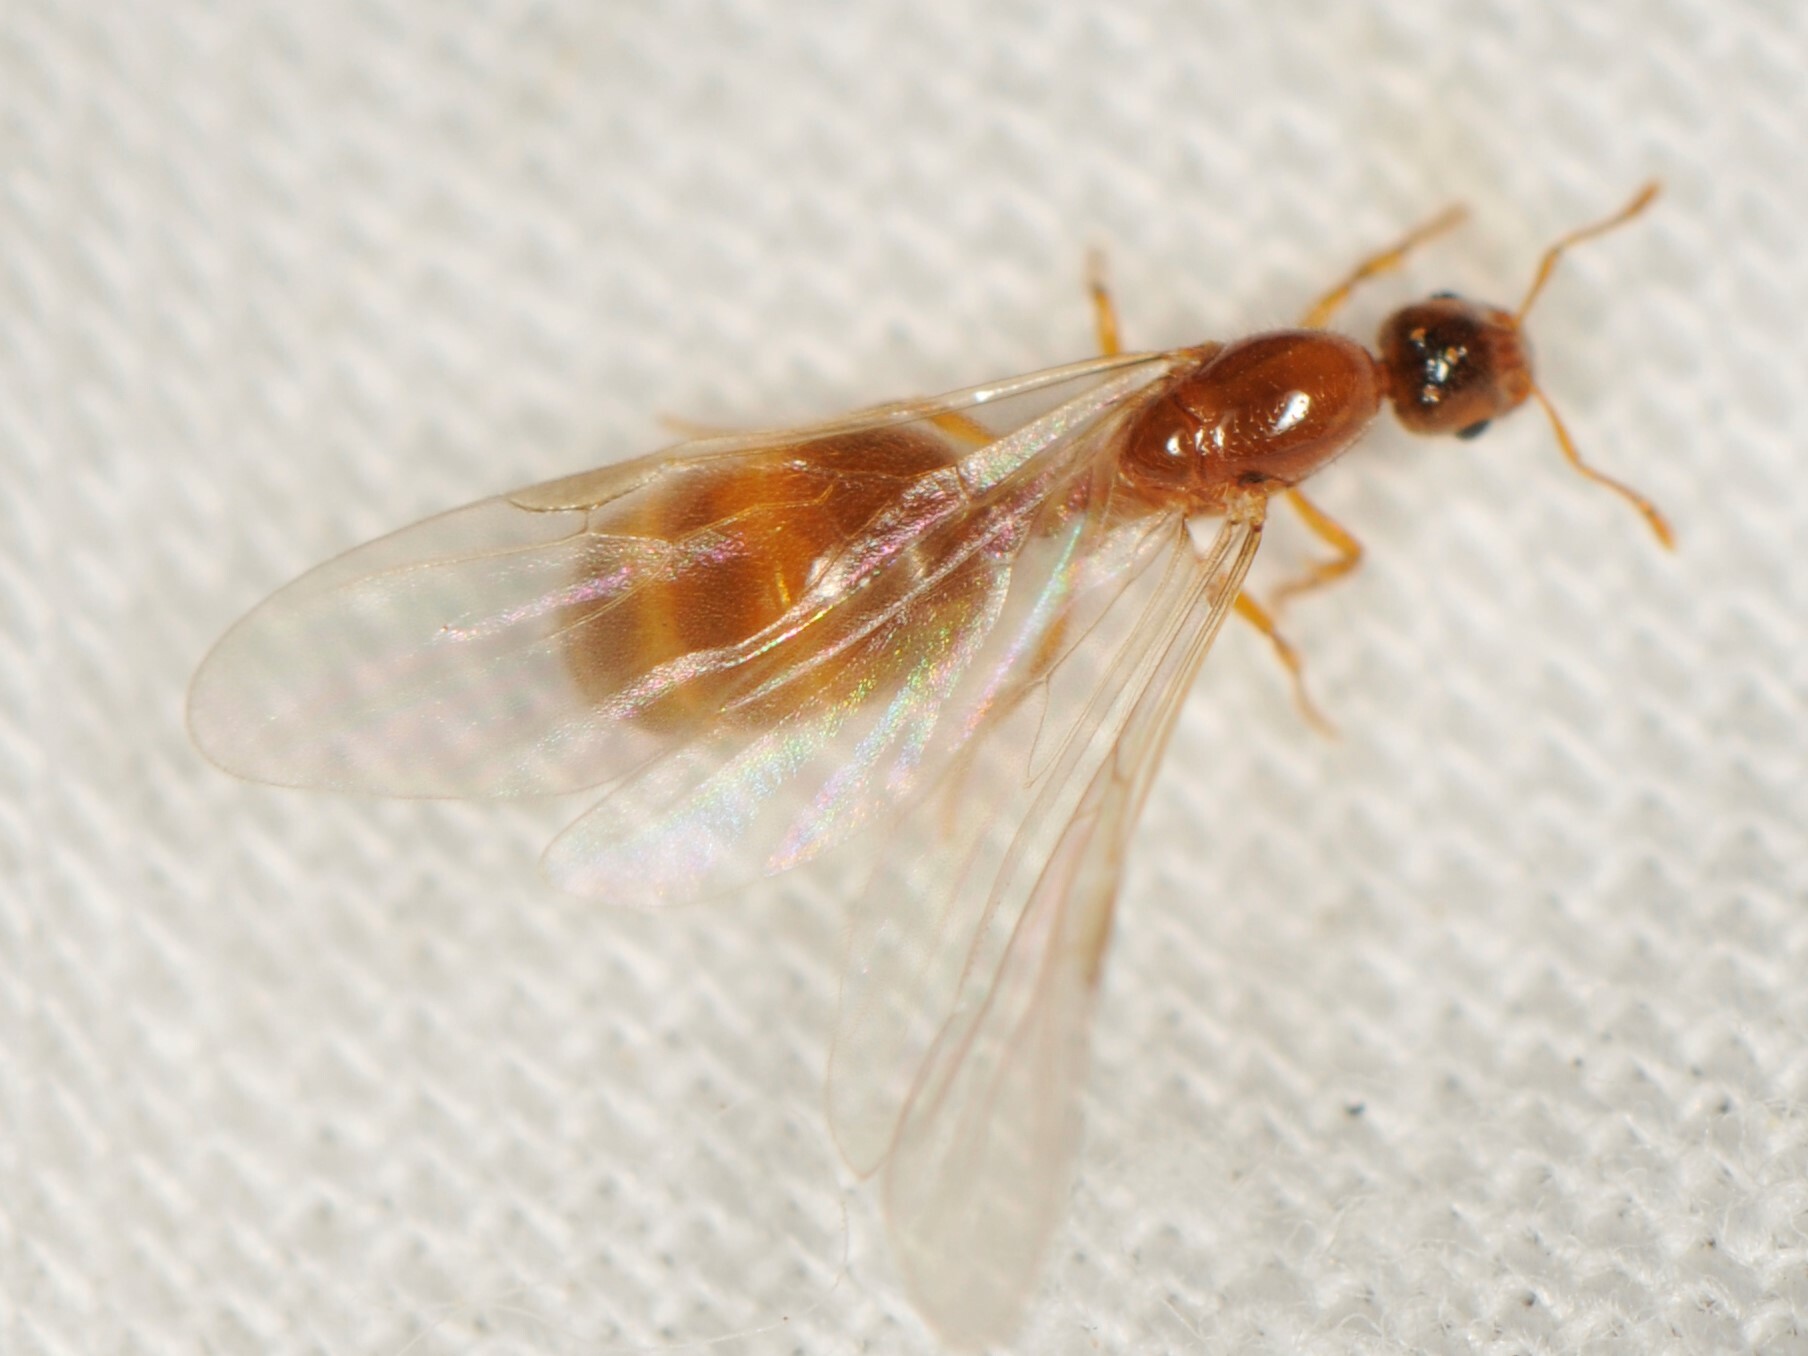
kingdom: Animalia
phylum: Arthropoda
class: Insecta
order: Hymenoptera
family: Formicidae
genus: Solenopsis
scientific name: Solenopsis
